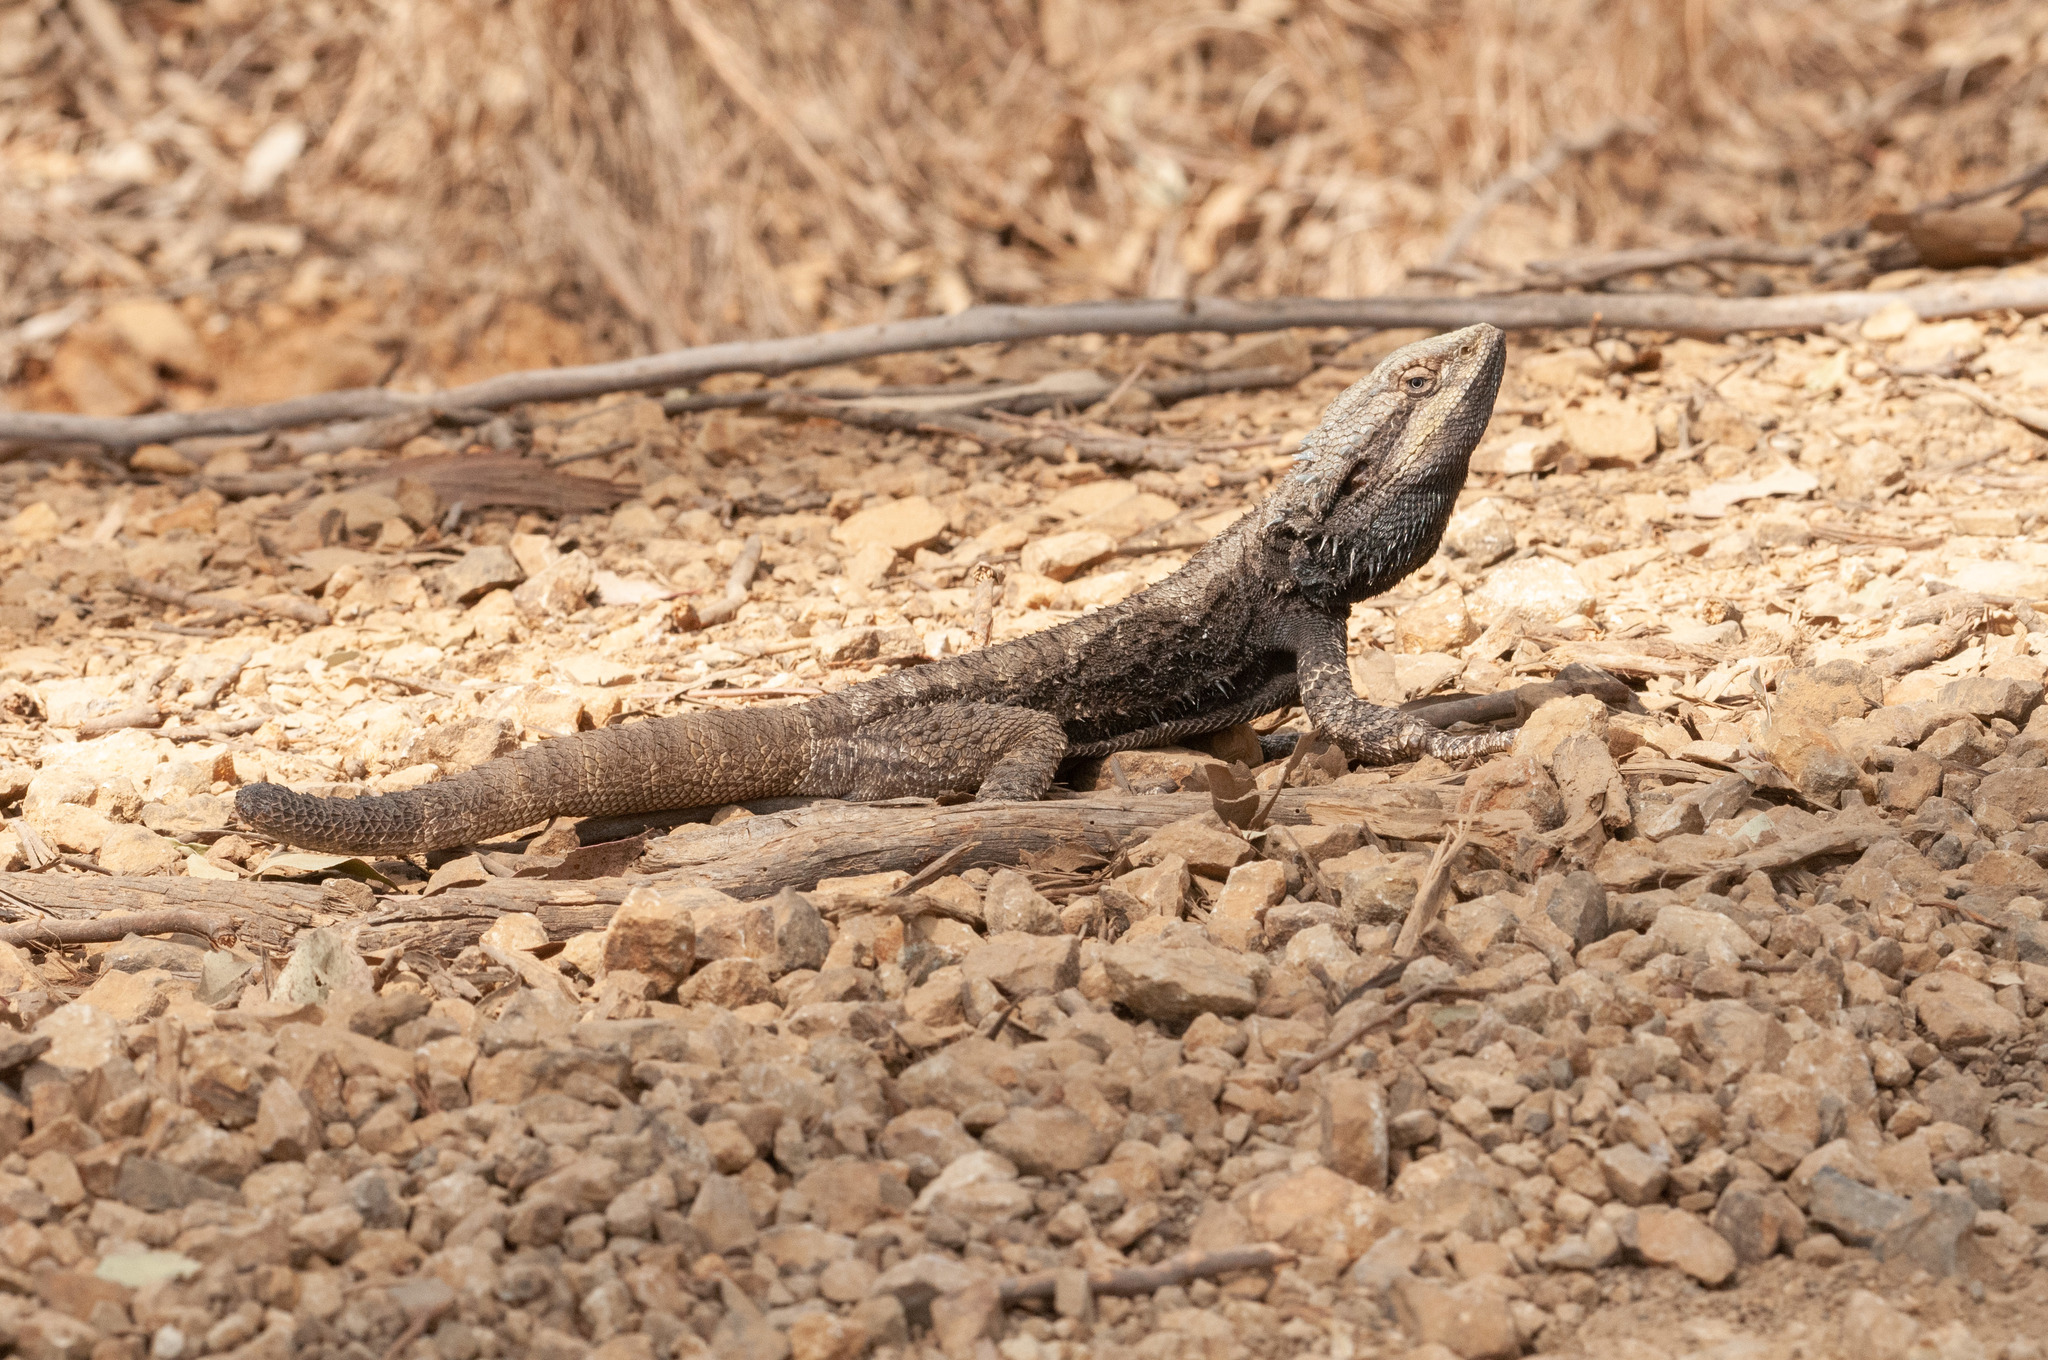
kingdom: Animalia
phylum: Chordata
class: Squamata
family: Agamidae
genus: Pogona
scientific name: Pogona barbata
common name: Bearded dragon
